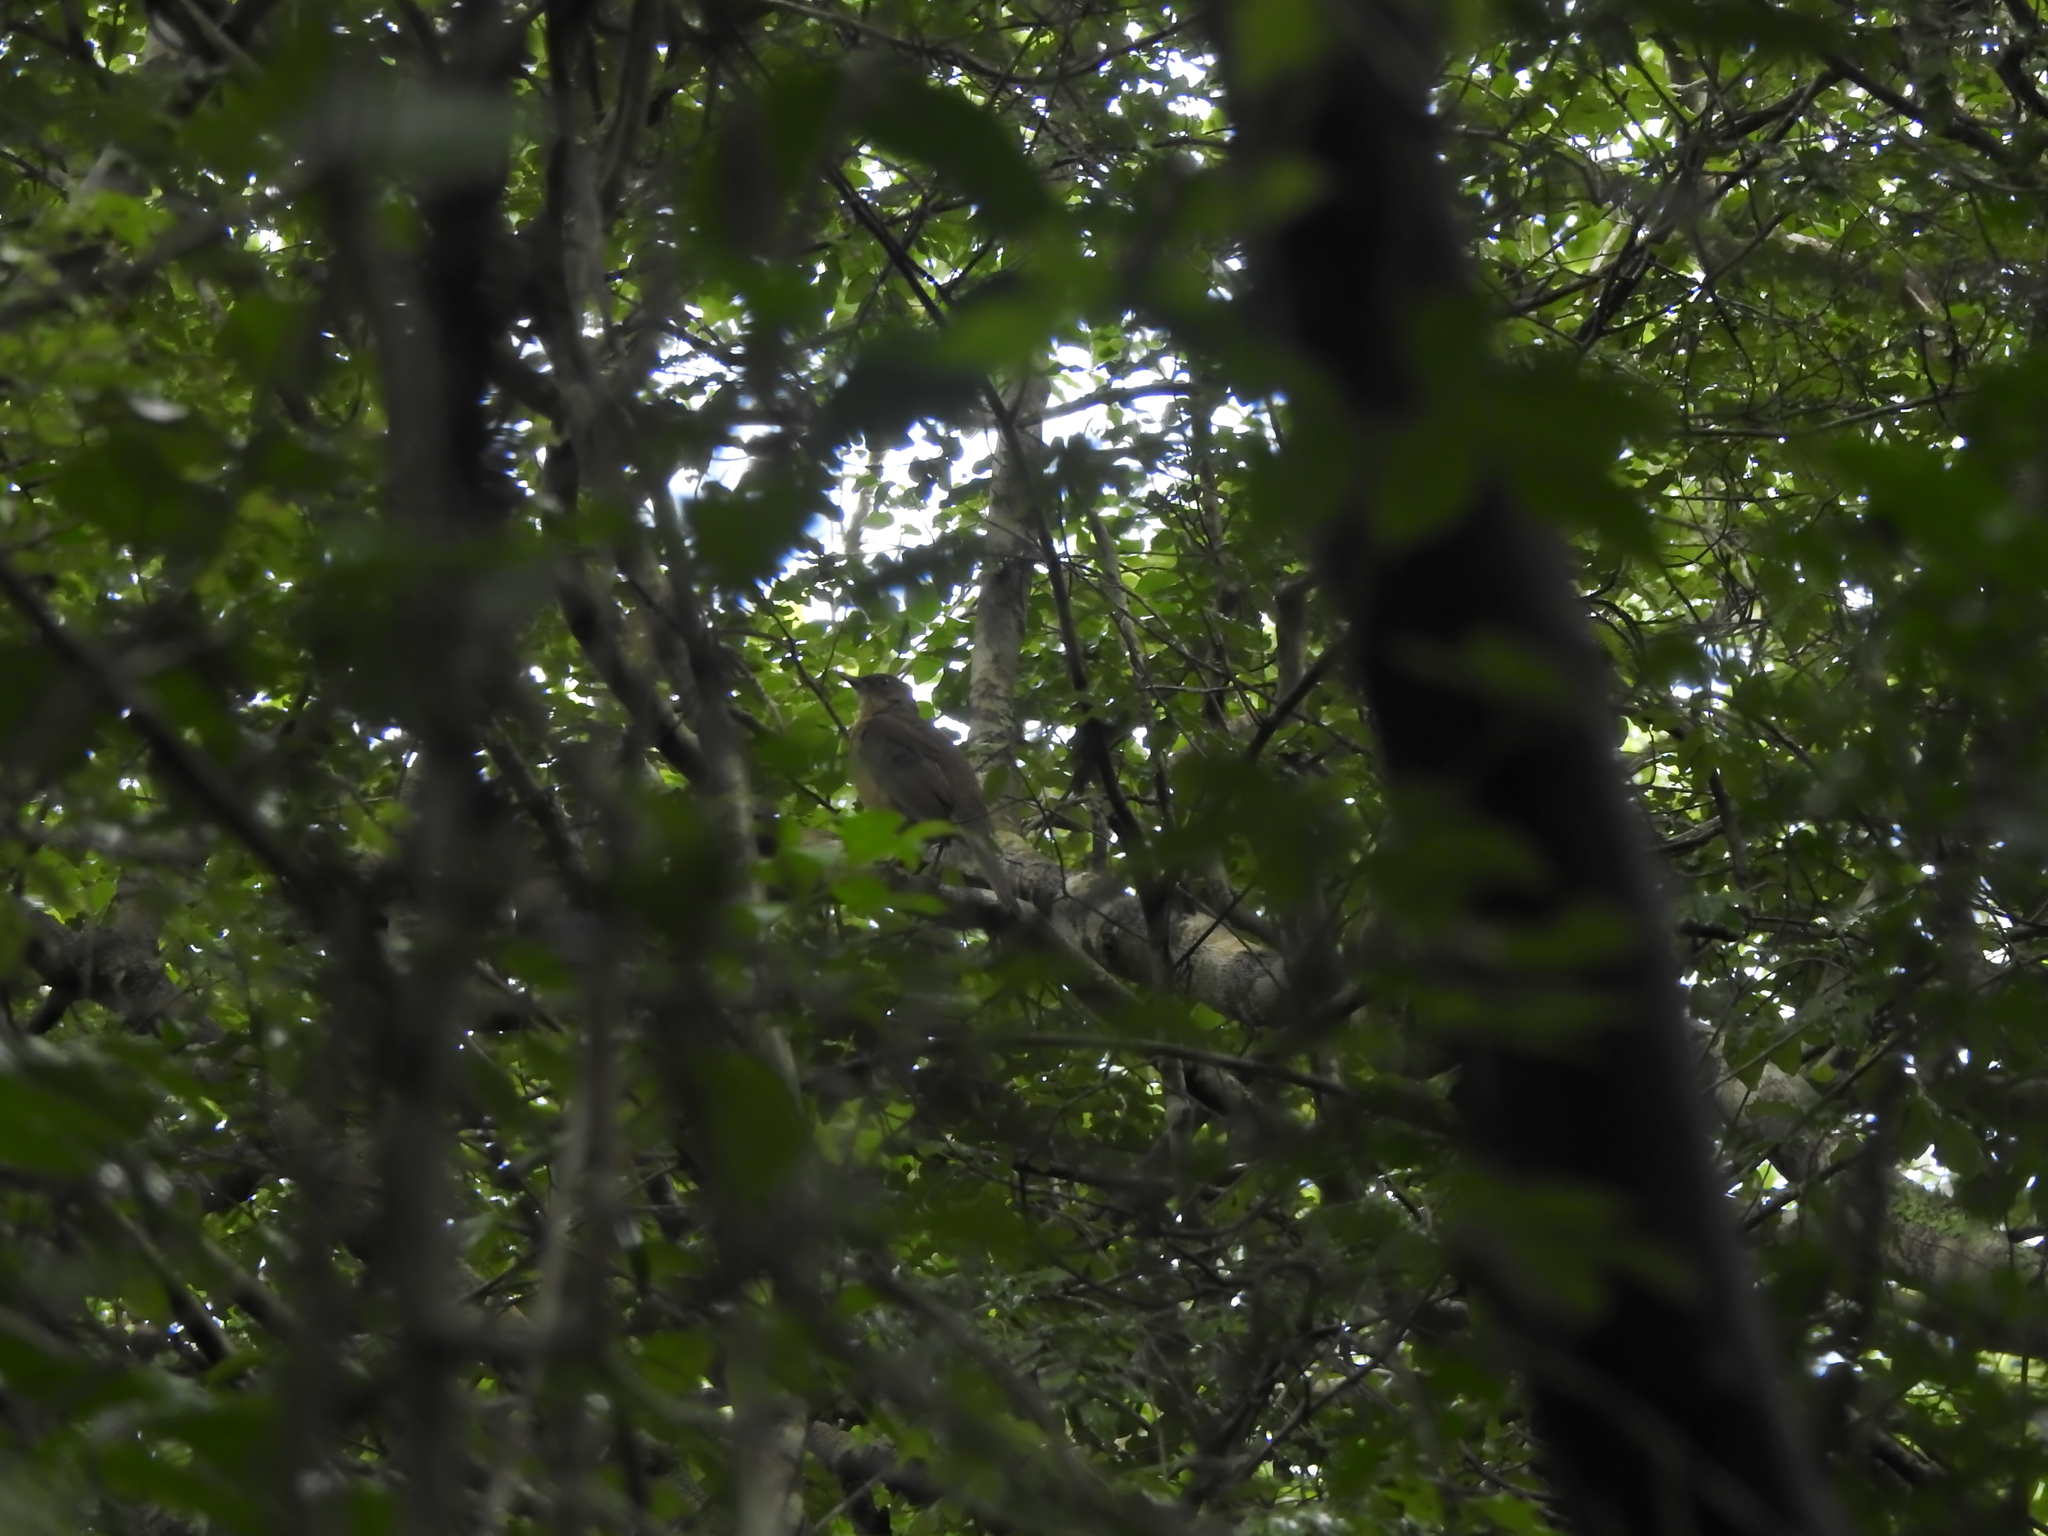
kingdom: Animalia
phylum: Chordata
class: Aves
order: Passeriformes
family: Turdidae
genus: Turdus
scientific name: Turdus grayi
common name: Clay-colored thrush
